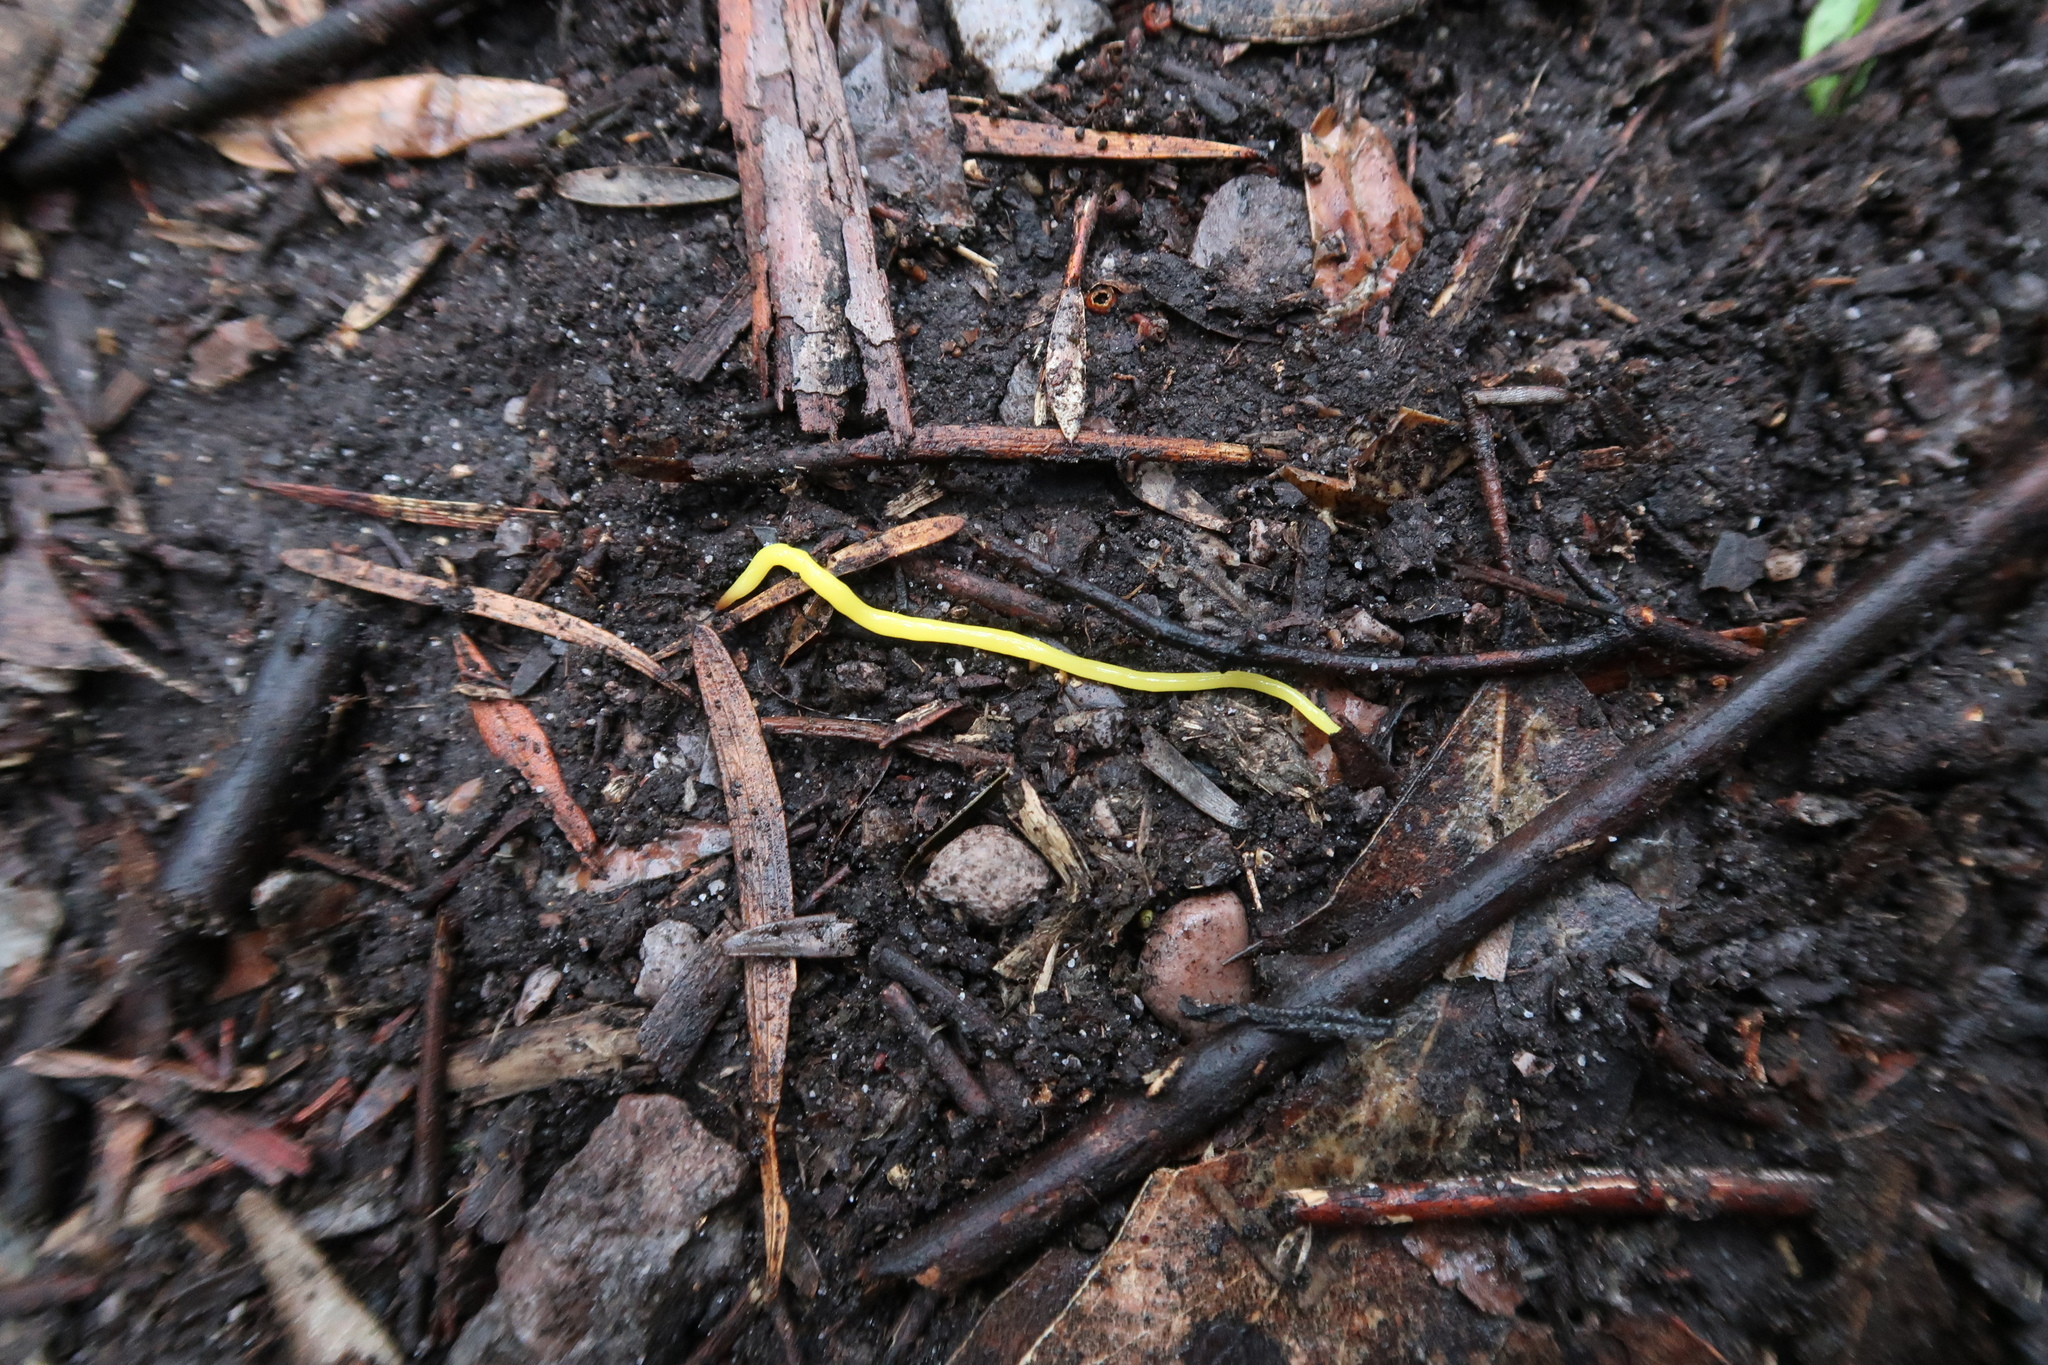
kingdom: Animalia
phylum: Platyhelminthes
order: Tricladida
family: Geoplanidae
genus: Fletchamia
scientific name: Fletchamia sugdeni
